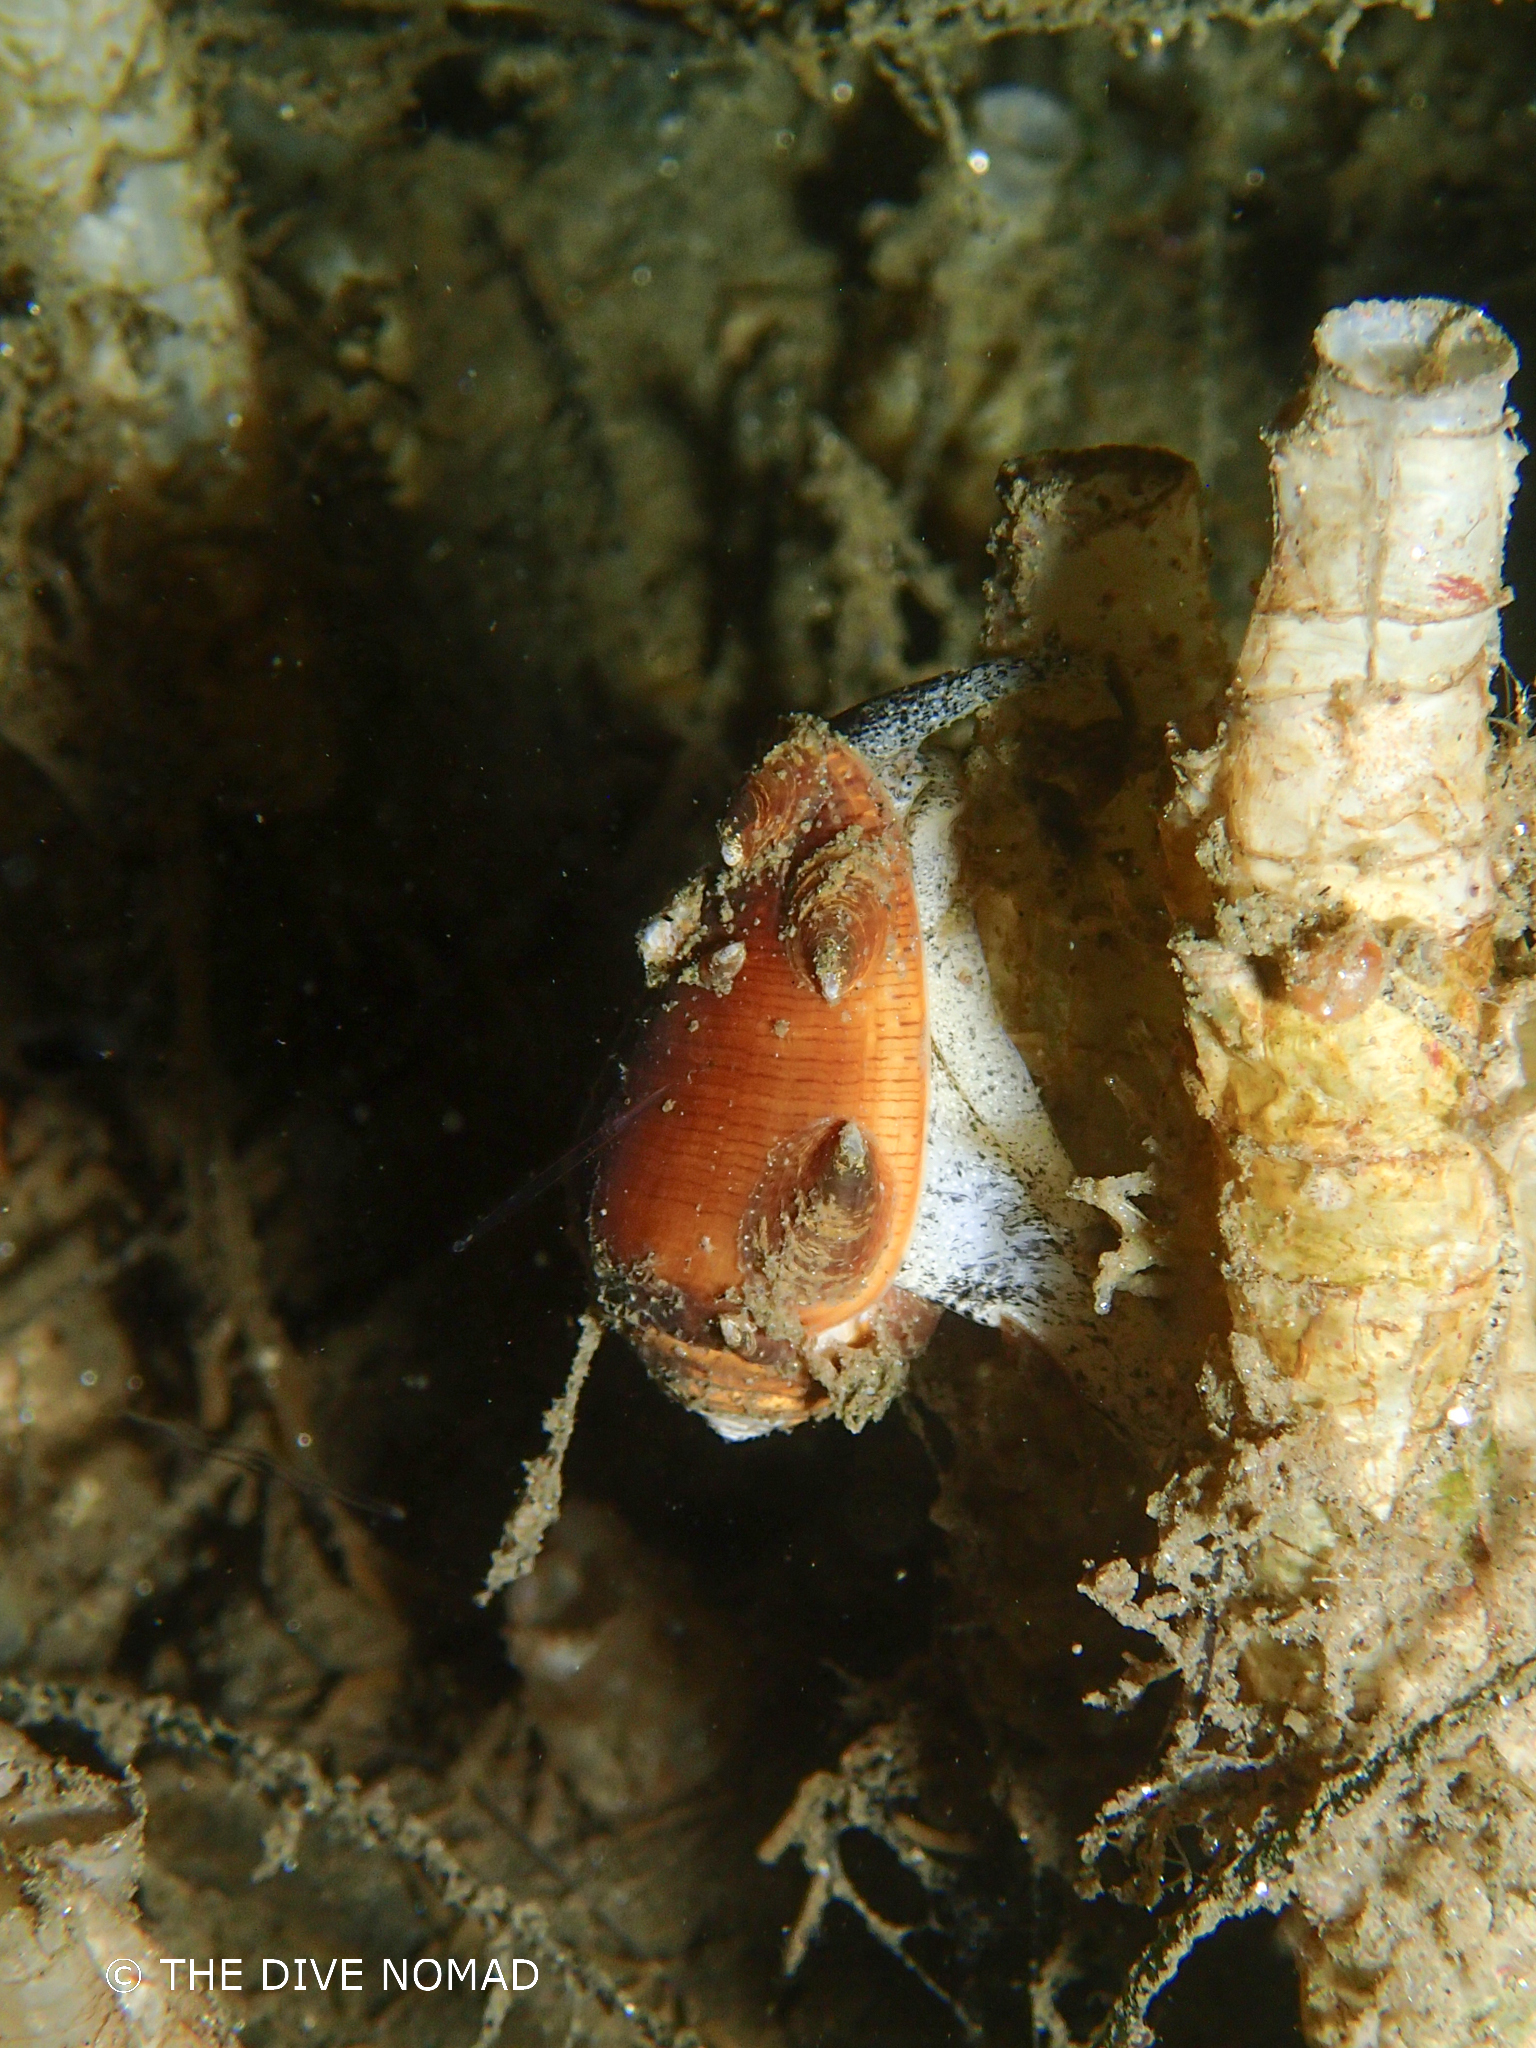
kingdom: Animalia
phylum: Mollusca
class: Gastropoda
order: Neogastropoda
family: Conidae
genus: Californiconus
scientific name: Californiconus californicus
